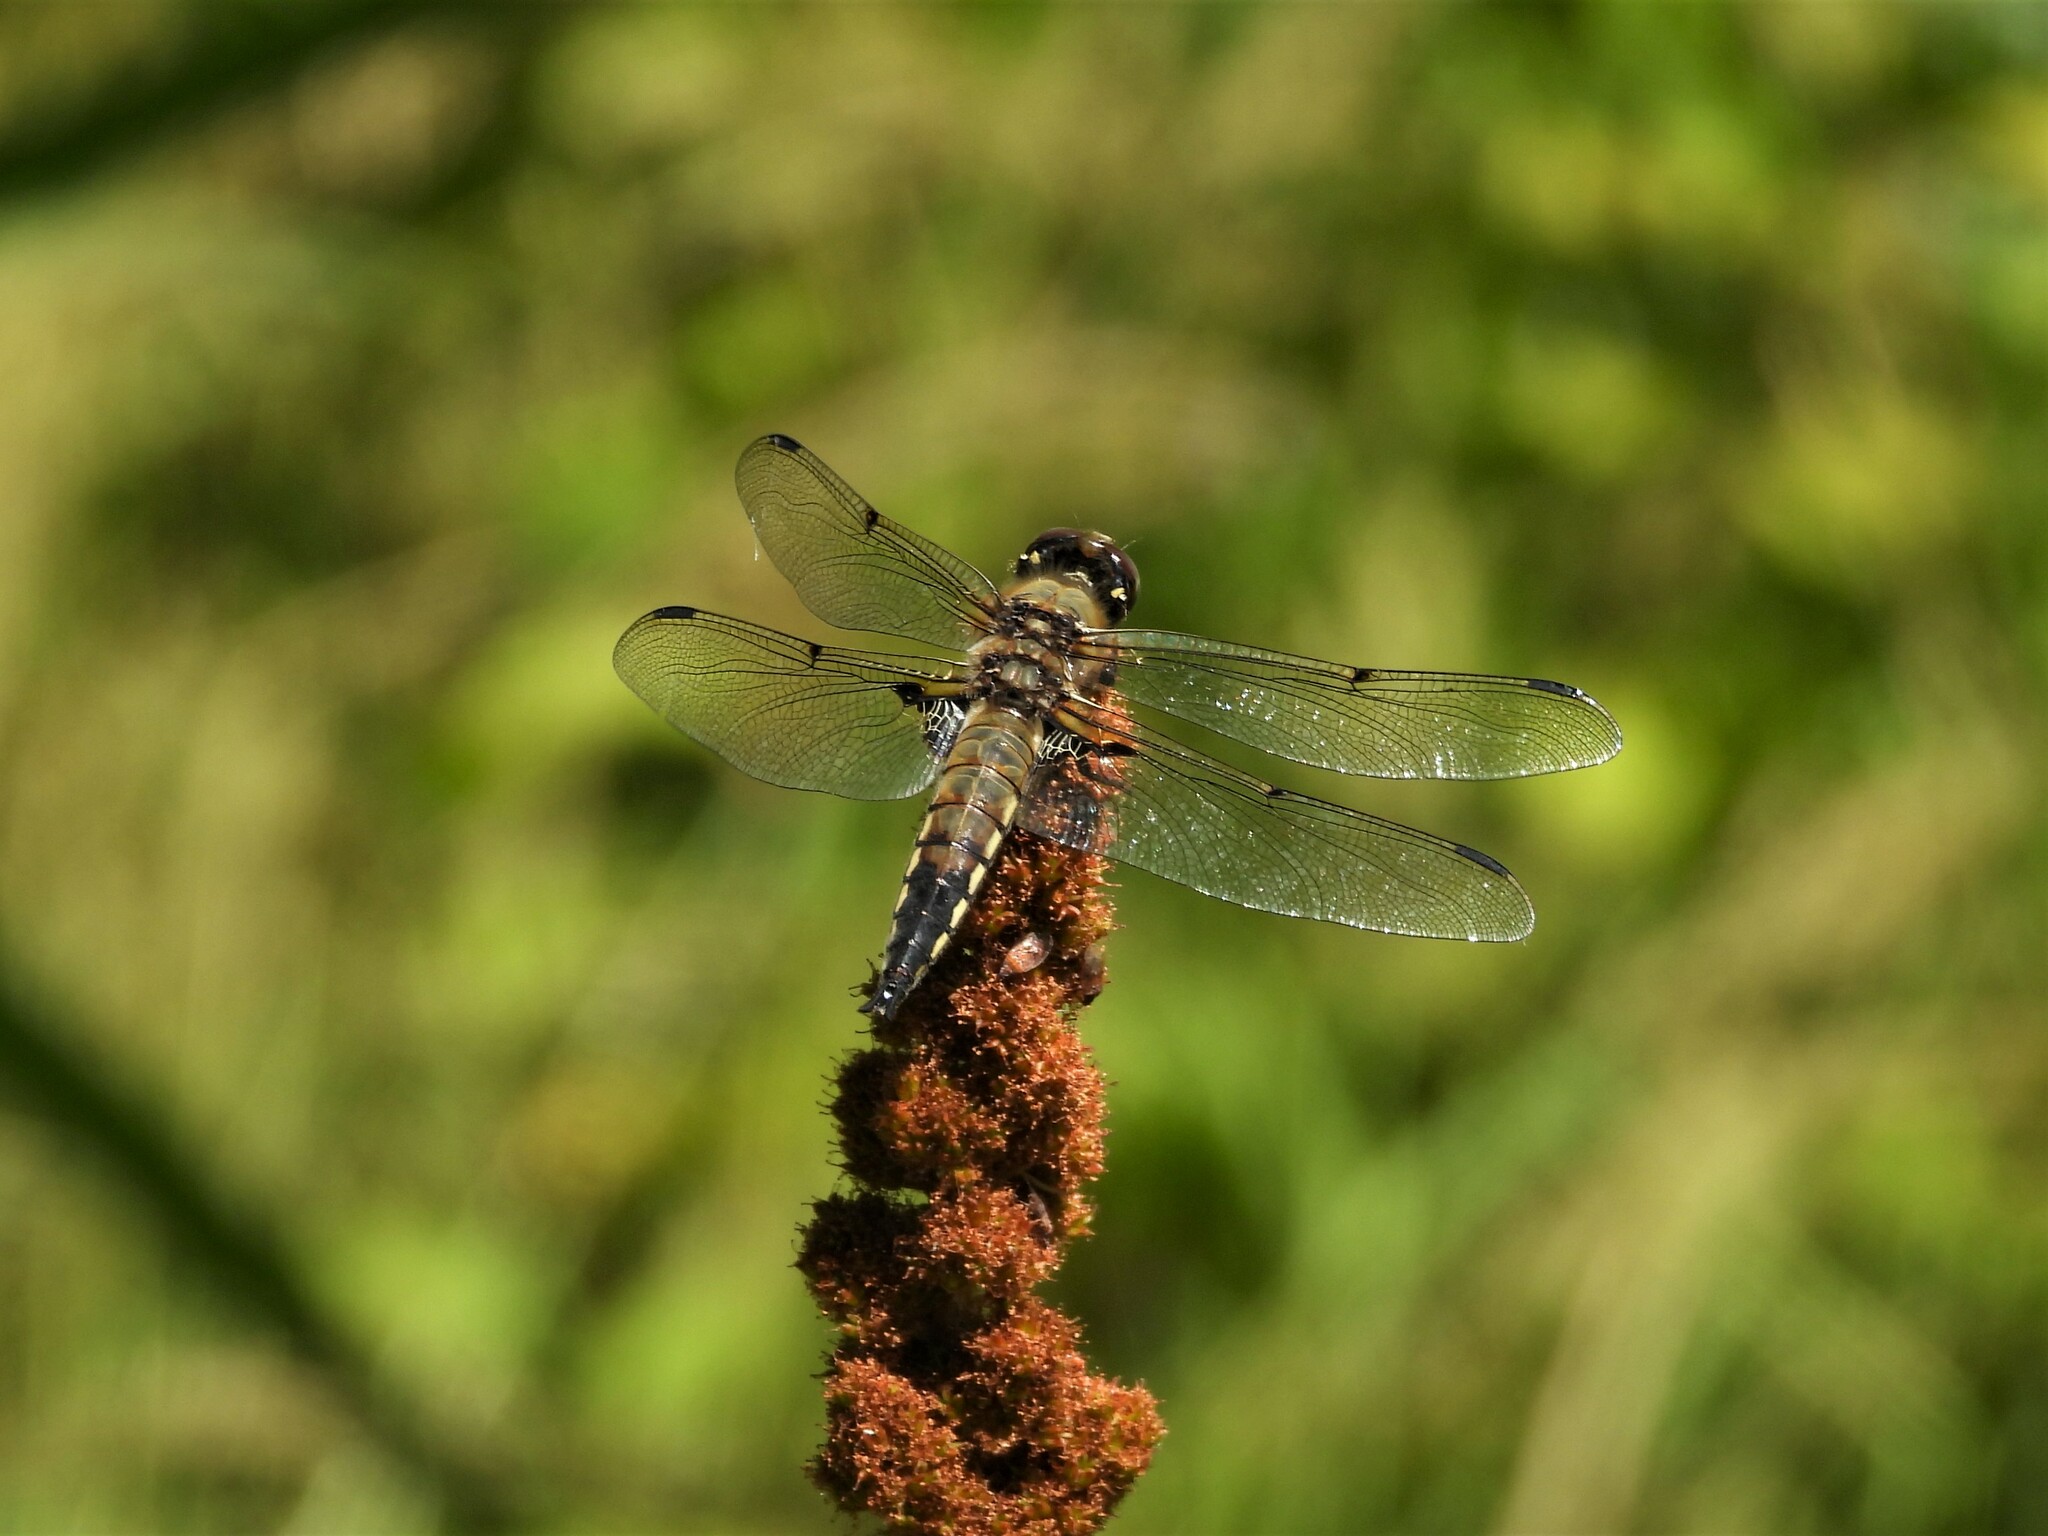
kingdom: Animalia
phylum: Arthropoda
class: Insecta
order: Odonata
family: Libellulidae
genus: Libellula
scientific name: Libellula quadrimaculata
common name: Four-spotted chaser
